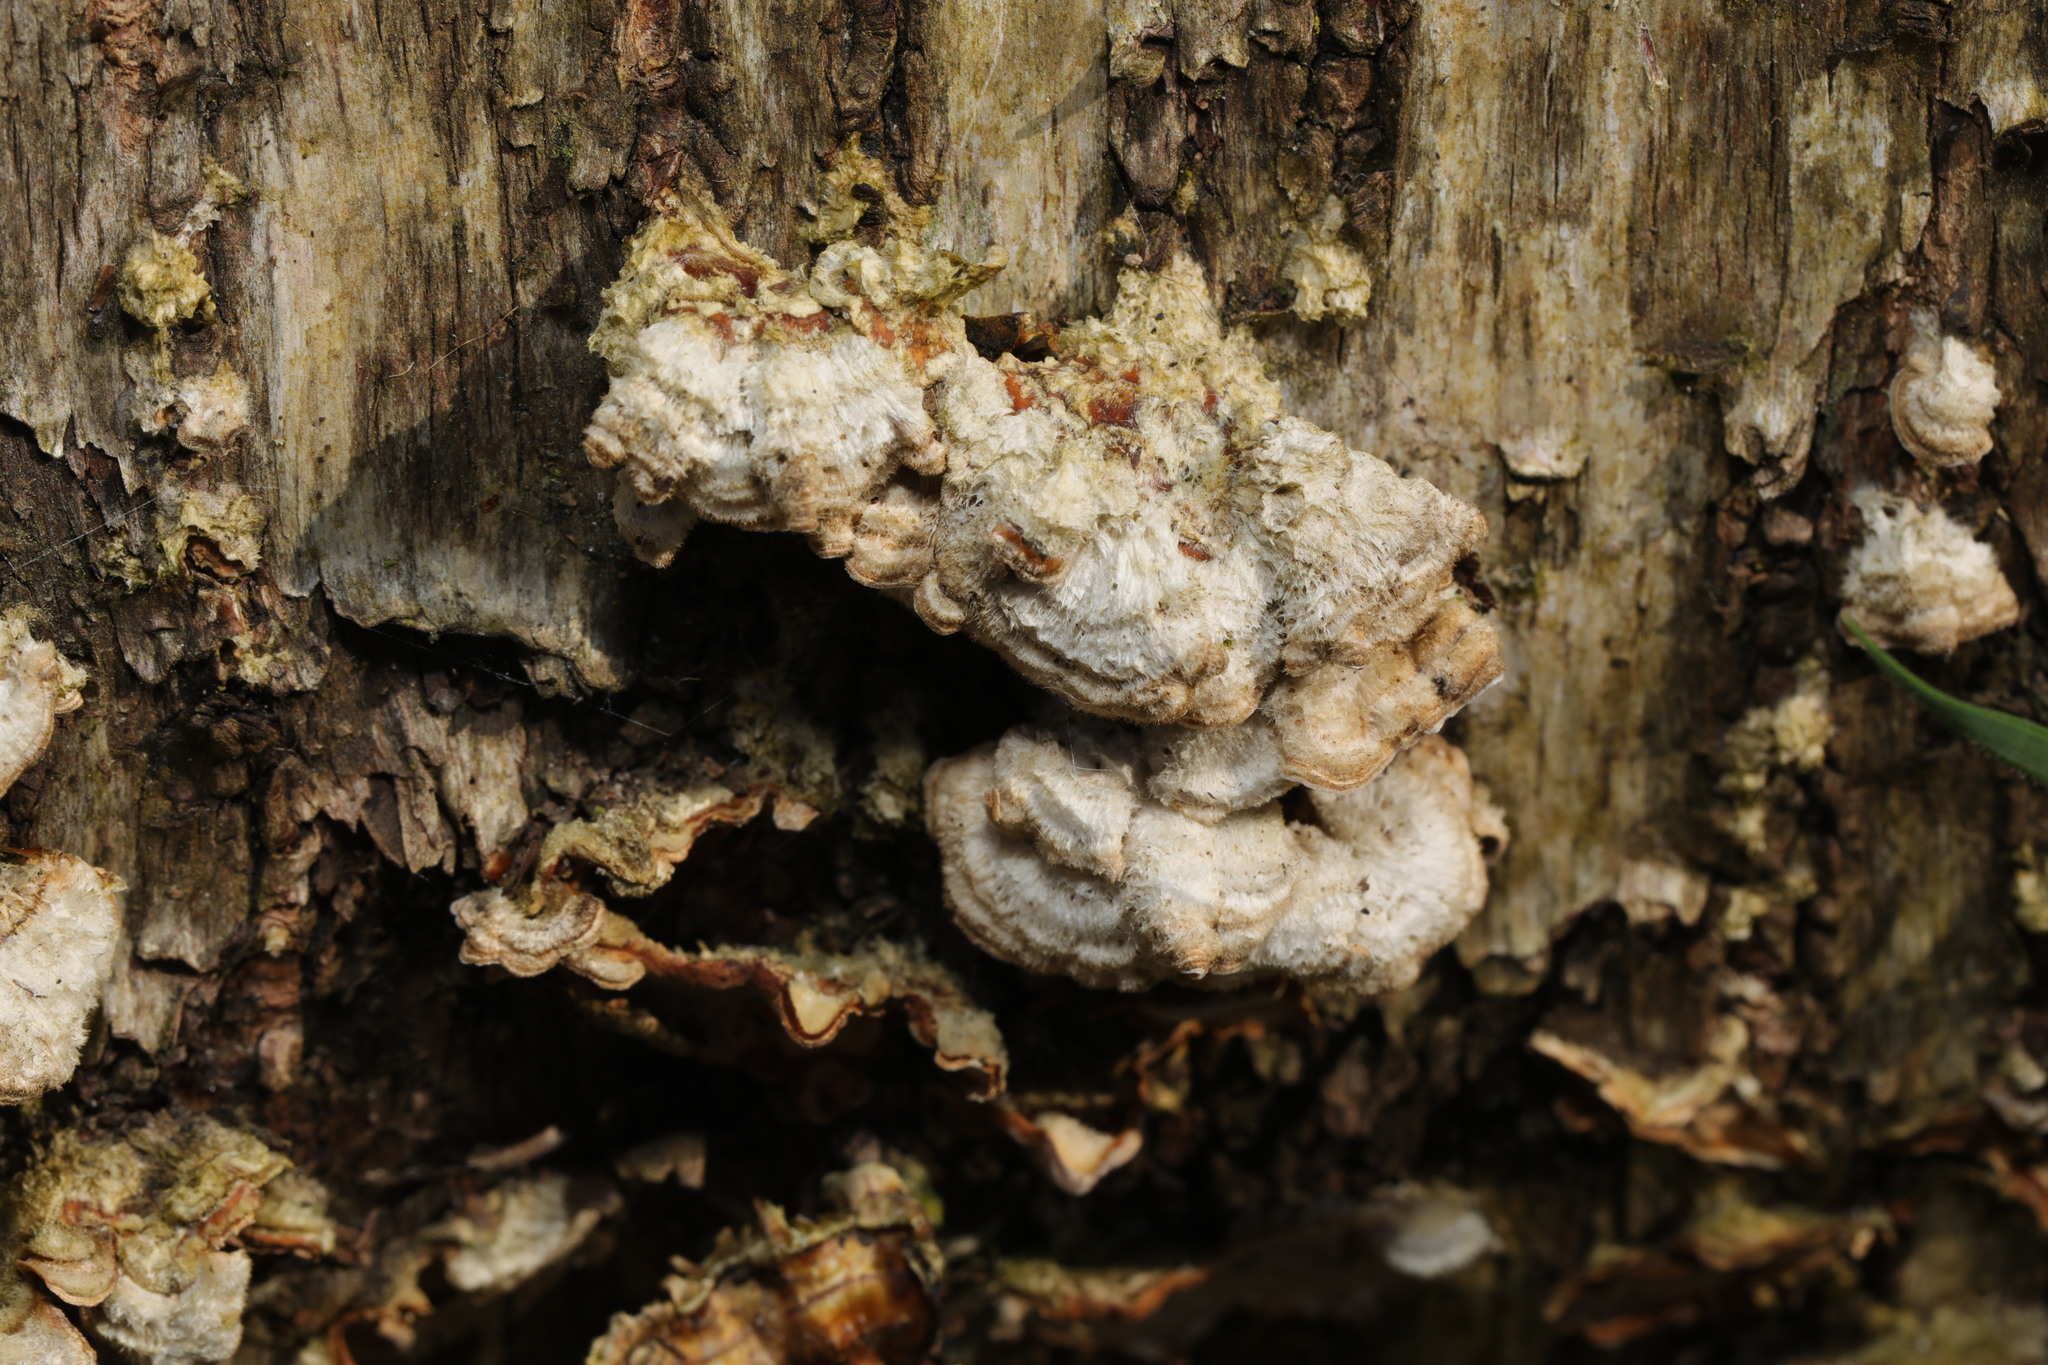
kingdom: Fungi
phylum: Basidiomycota
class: Agaricomycetes
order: Russulales
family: Stereaceae
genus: Stereum
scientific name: Stereum hirsutum
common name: Hairy curtain crust
